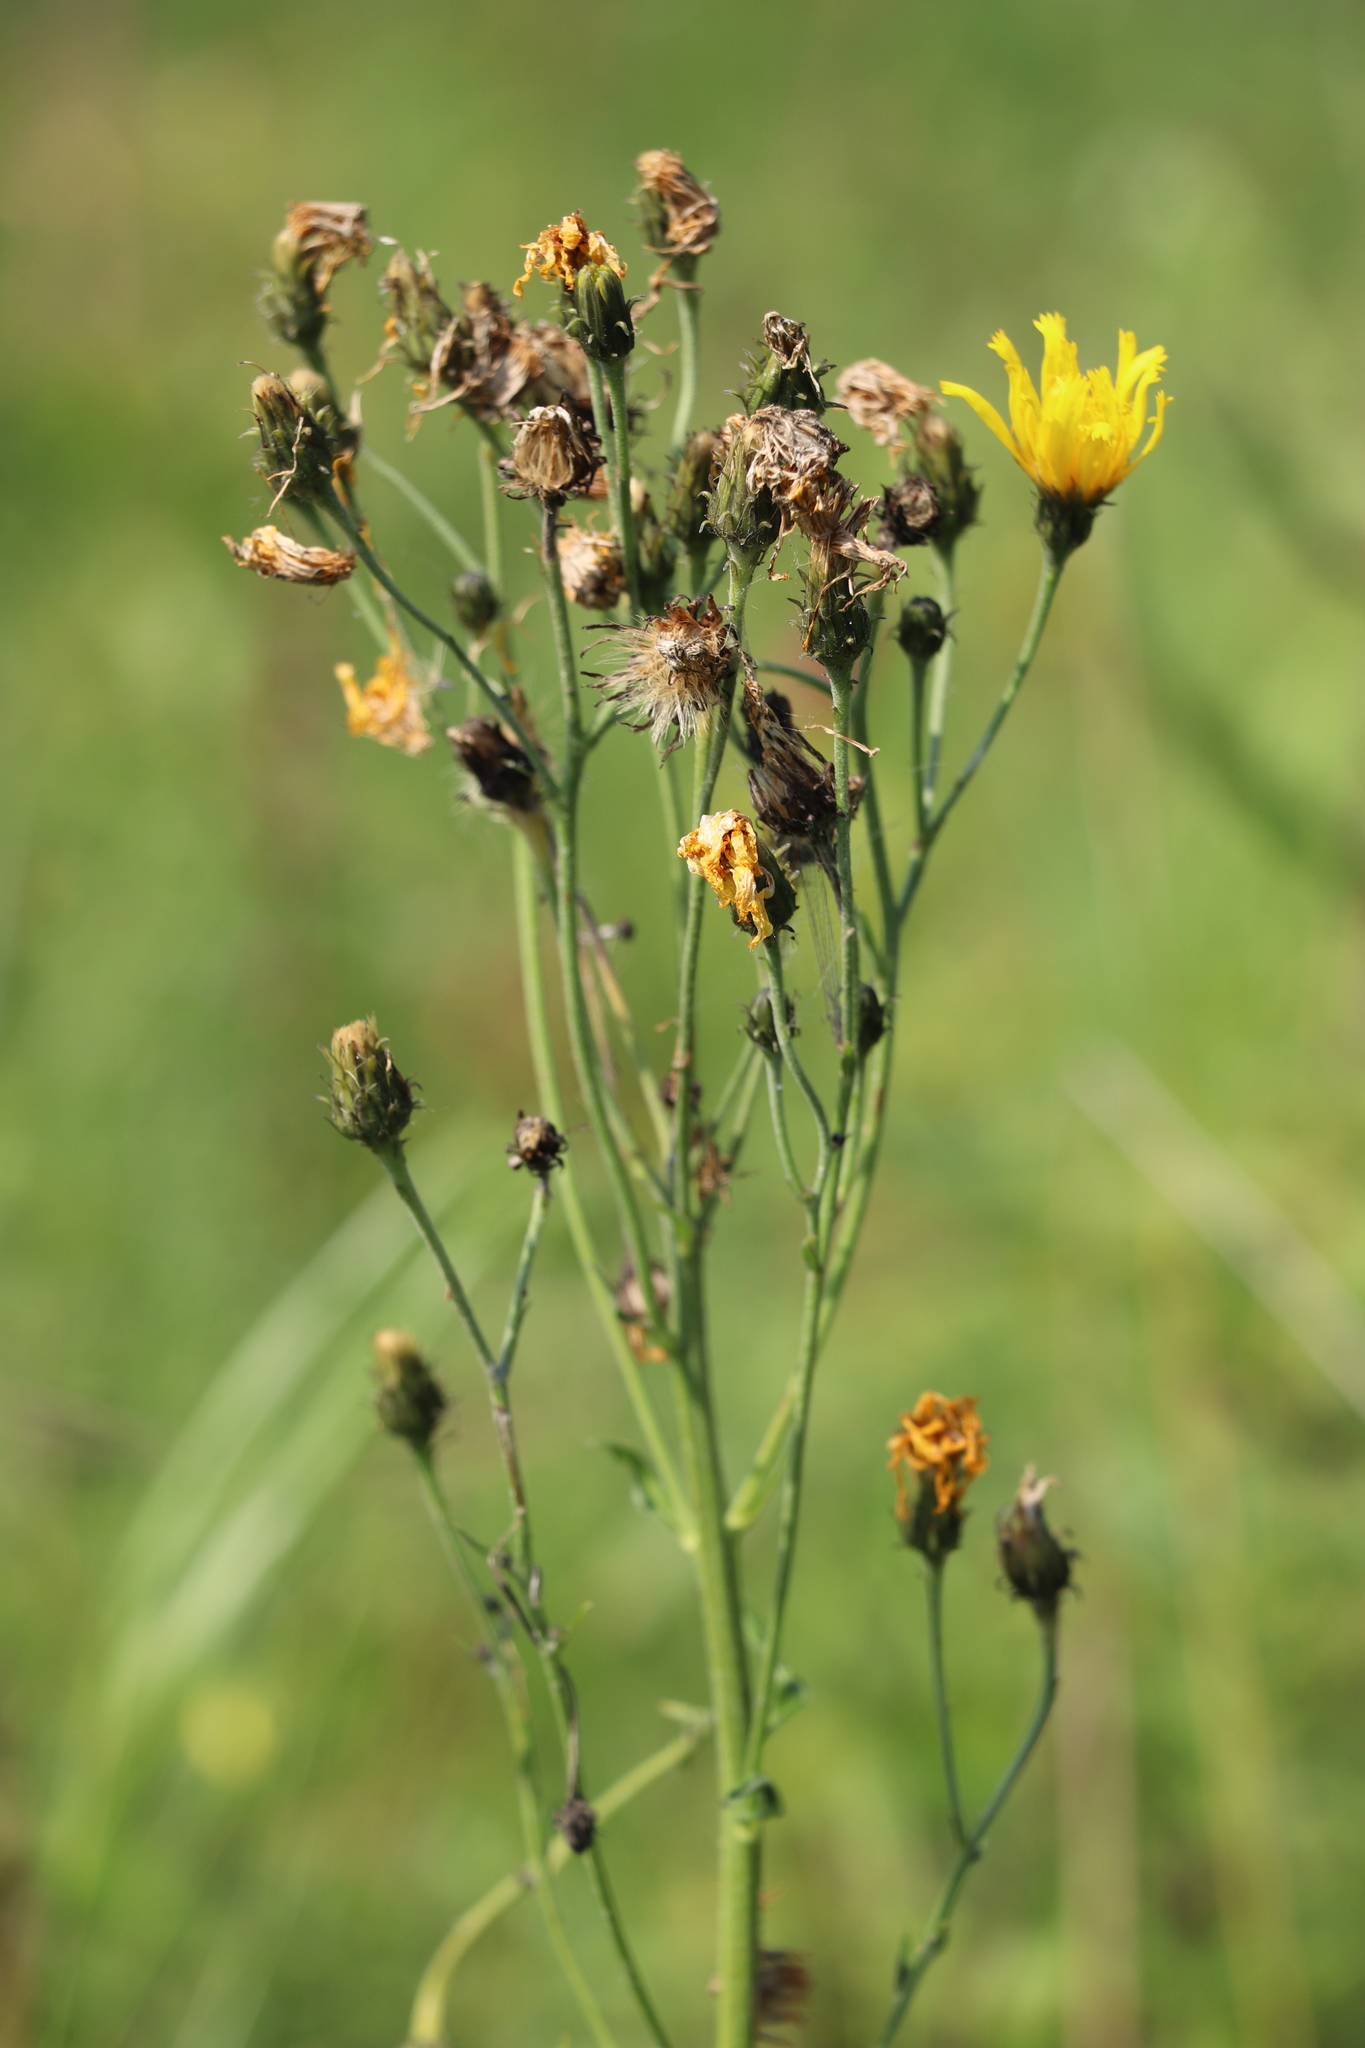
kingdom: Plantae
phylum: Tracheophyta
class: Magnoliopsida
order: Asterales
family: Asteraceae
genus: Hieracium
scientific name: Hieracium umbellatum
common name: Northern hawkweed
